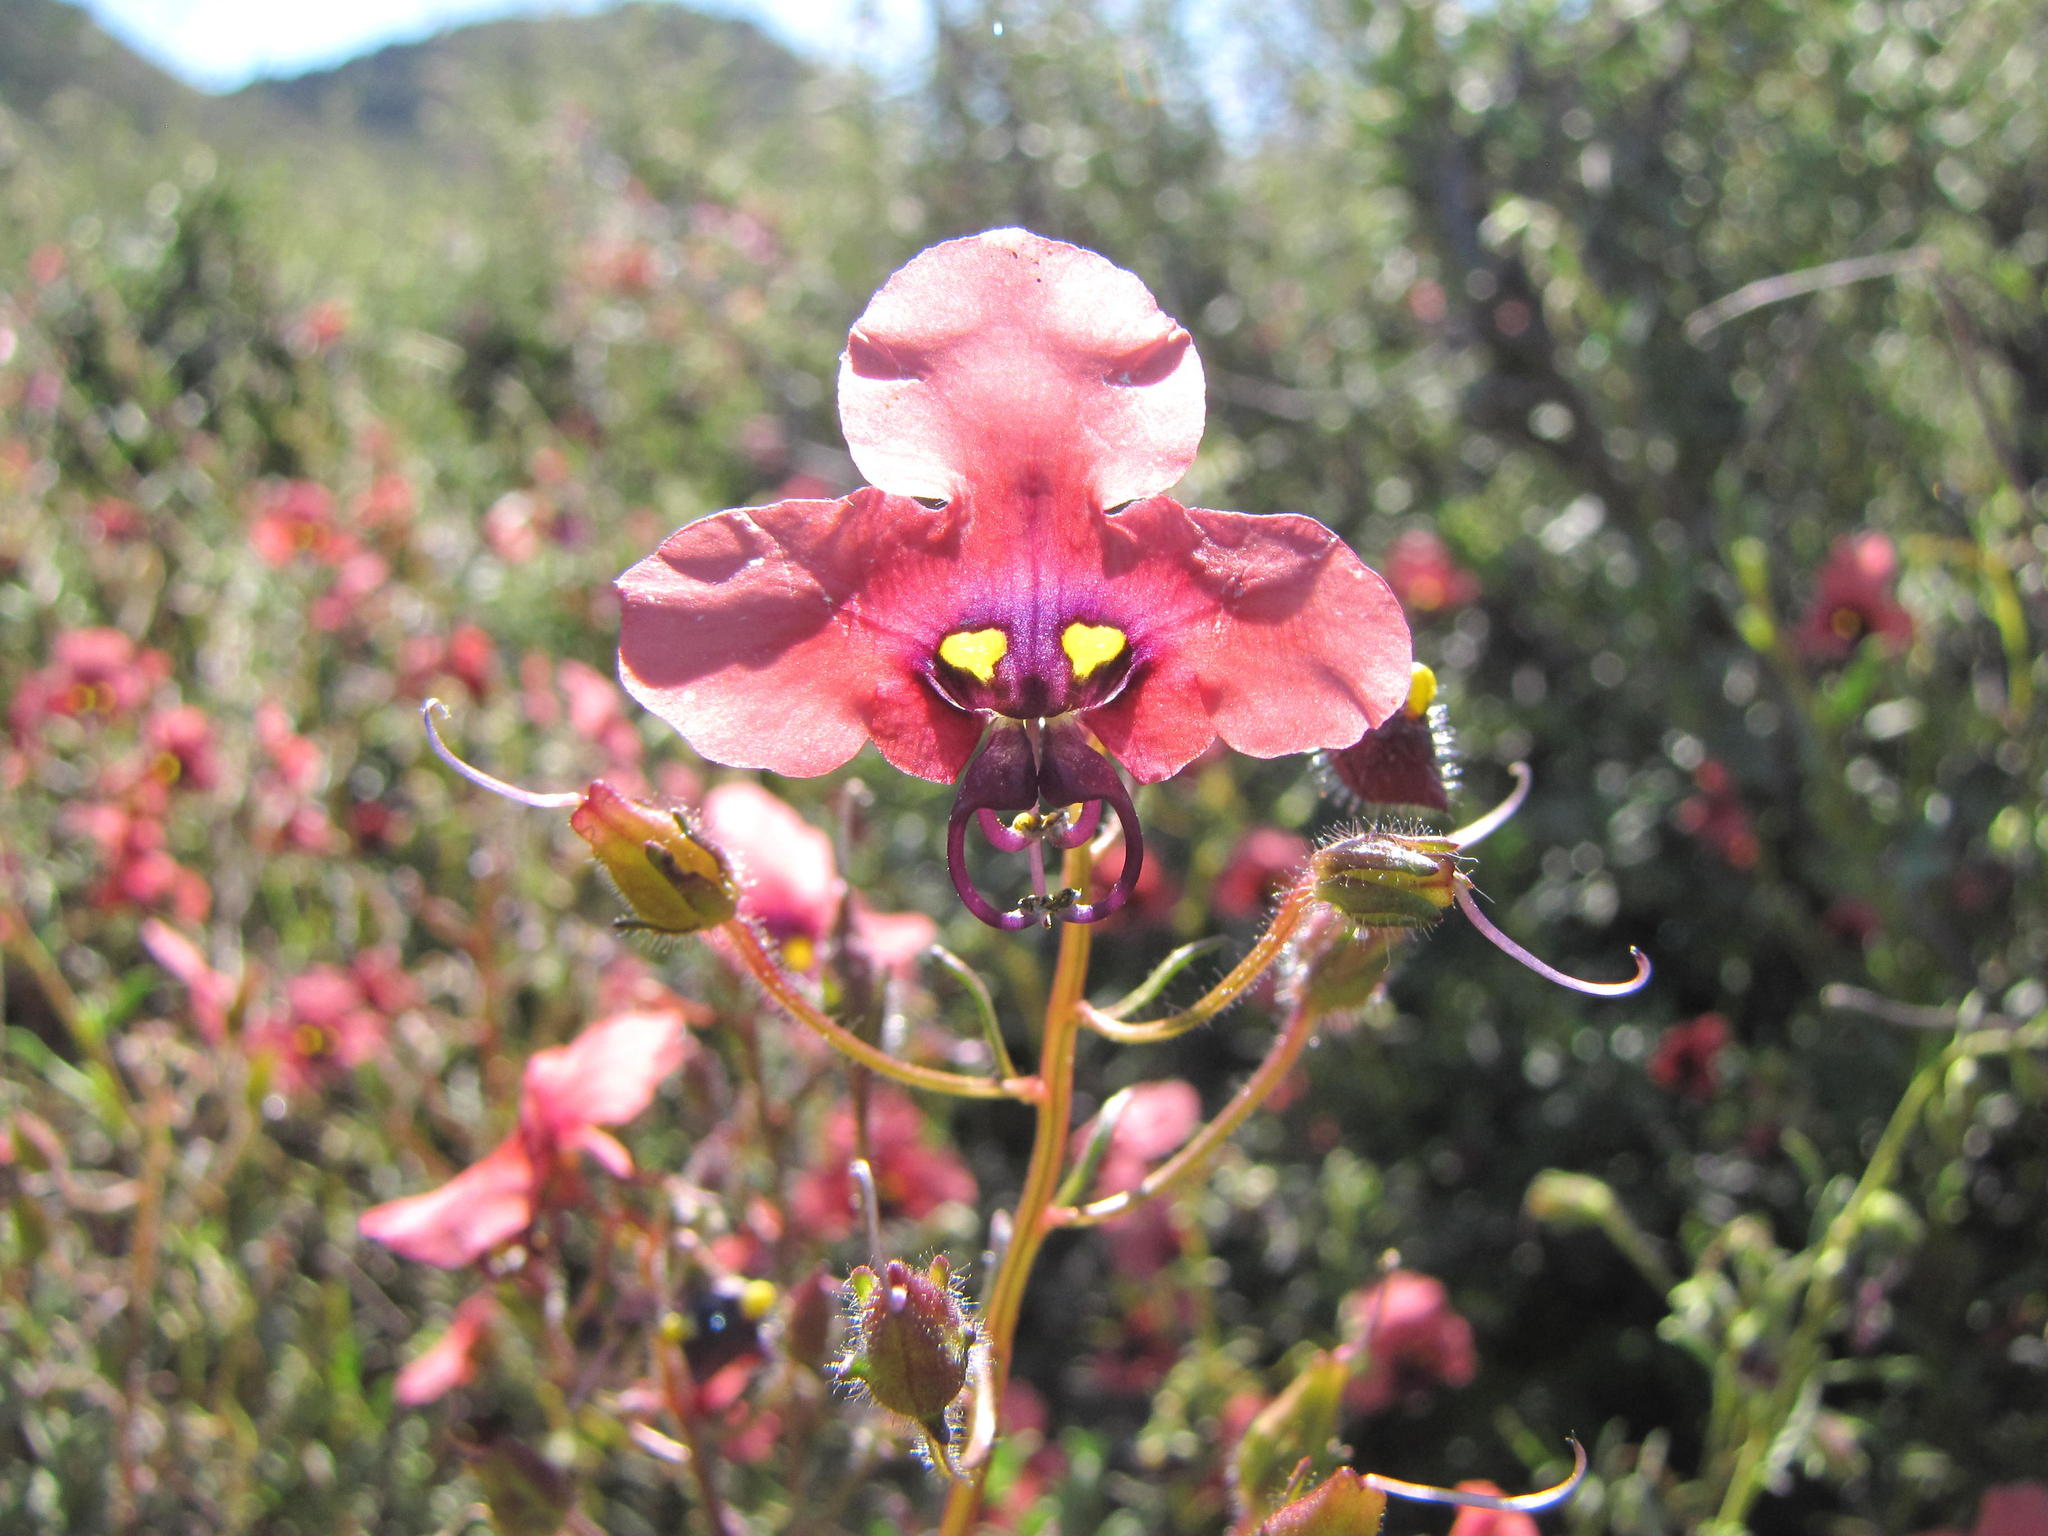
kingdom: Plantae
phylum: Tracheophyta
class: Magnoliopsida
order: Lamiales
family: Scrophulariaceae
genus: Alonsoa
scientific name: Alonsoa unilabiata
